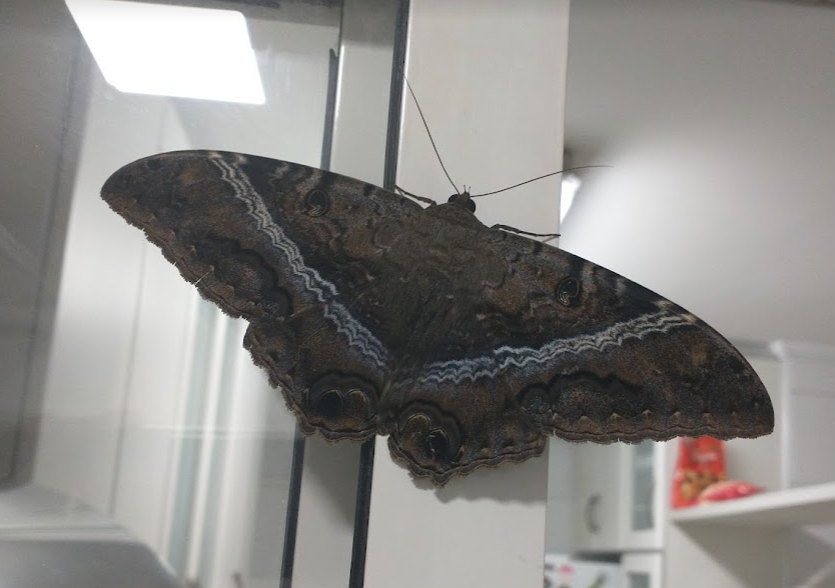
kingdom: Animalia
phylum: Arthropoda
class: Insecta
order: Lepidoptera
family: Erebidae
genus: Ascalapha
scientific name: Ascalapha odorata
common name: Black witch
